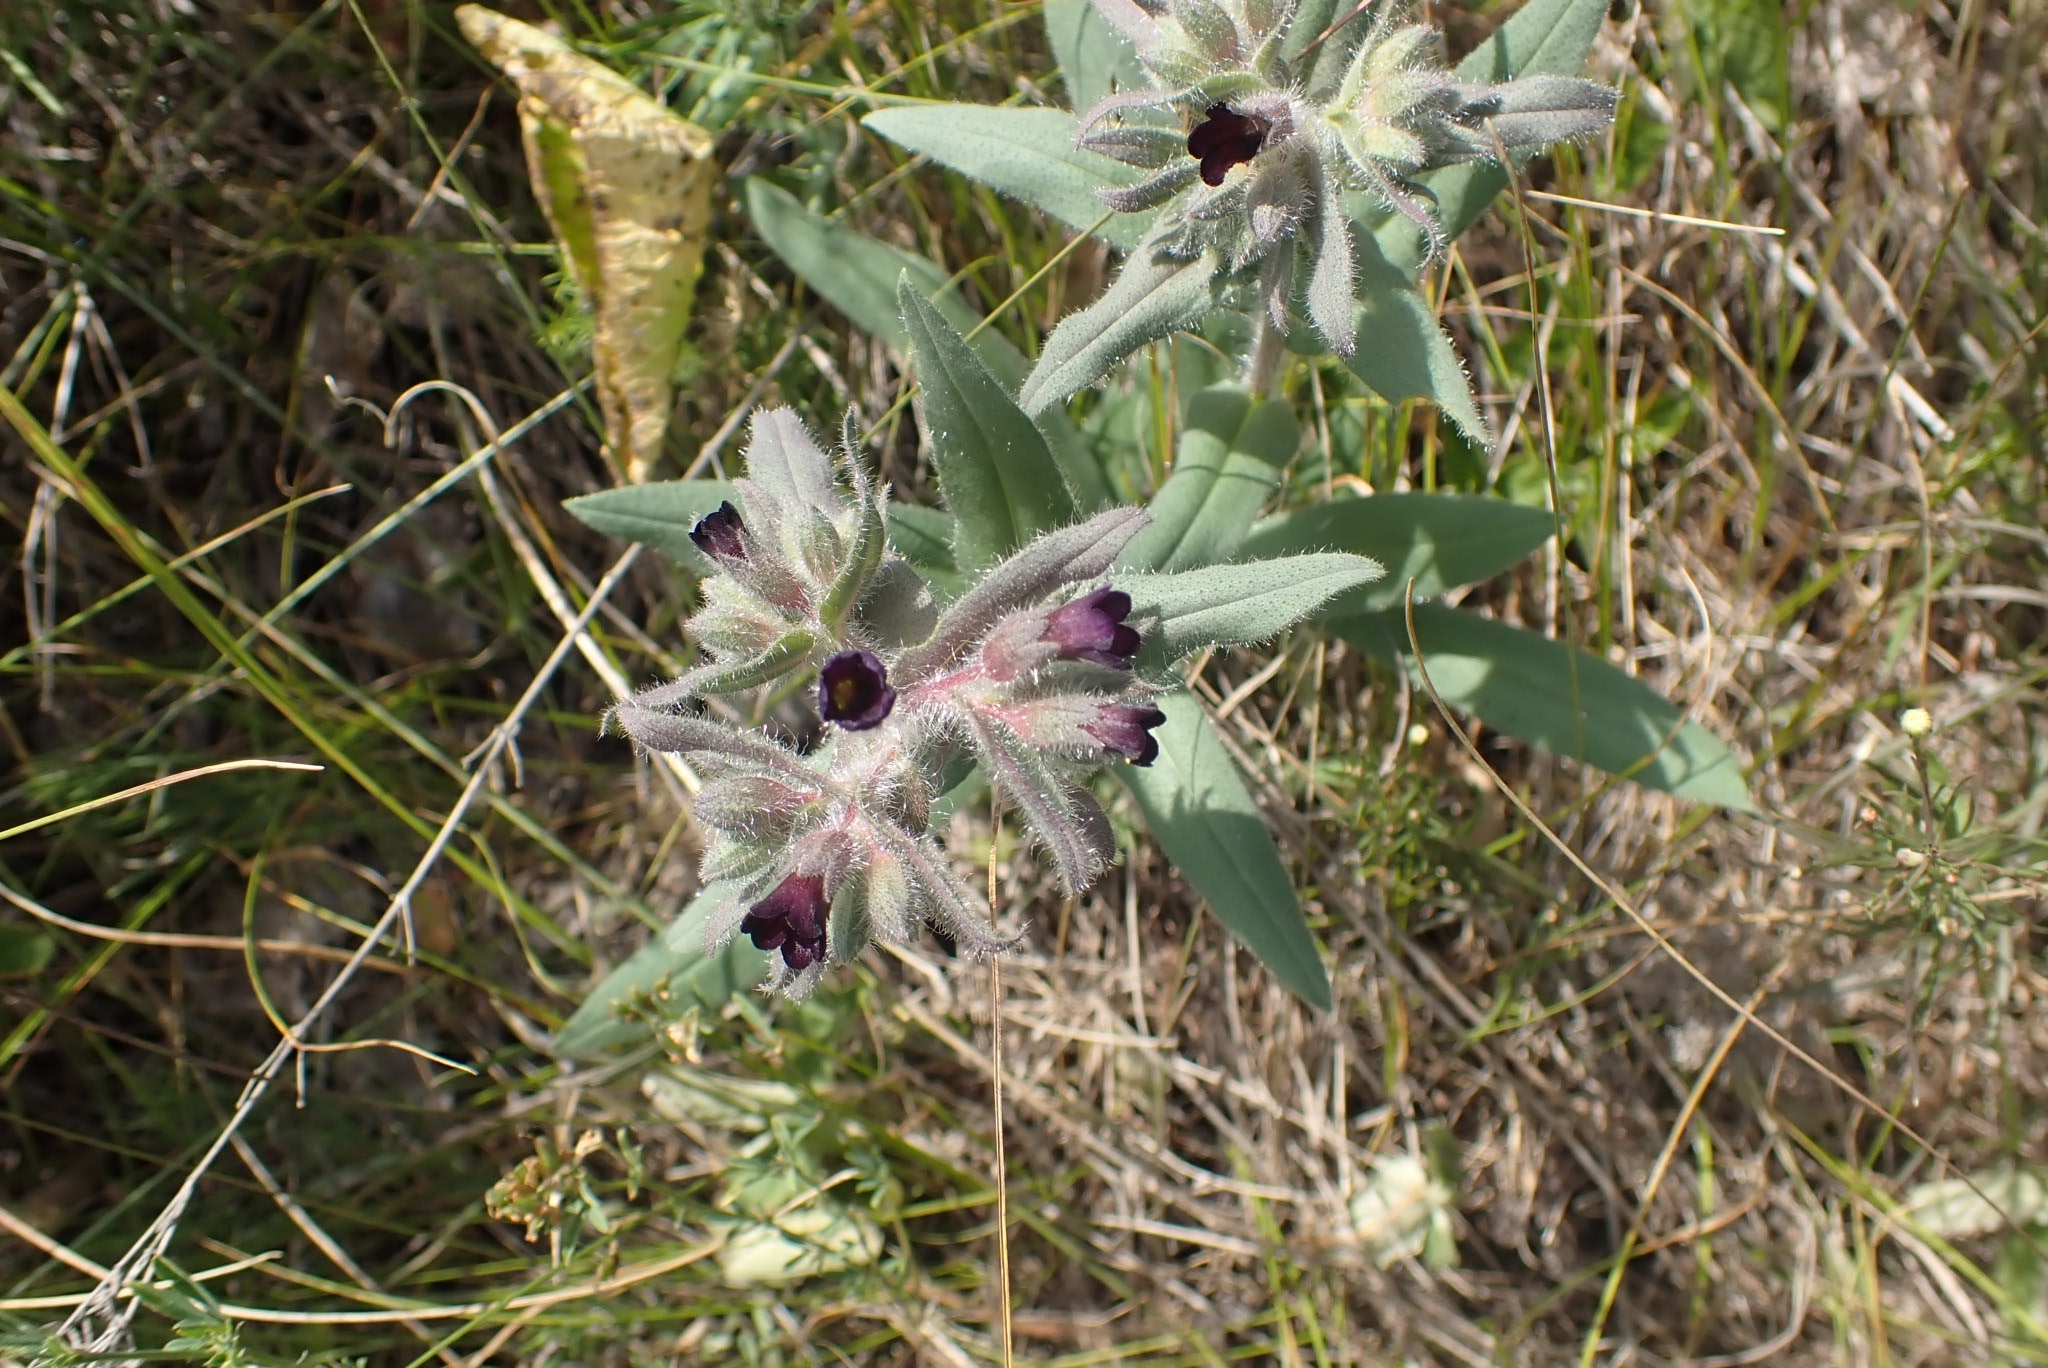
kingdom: Plantae
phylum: Tracheophyta
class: Magnoliopsida
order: Boraginales
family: Boraginaceae
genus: Nonea
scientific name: Nonea pulla
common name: Brown nonea
